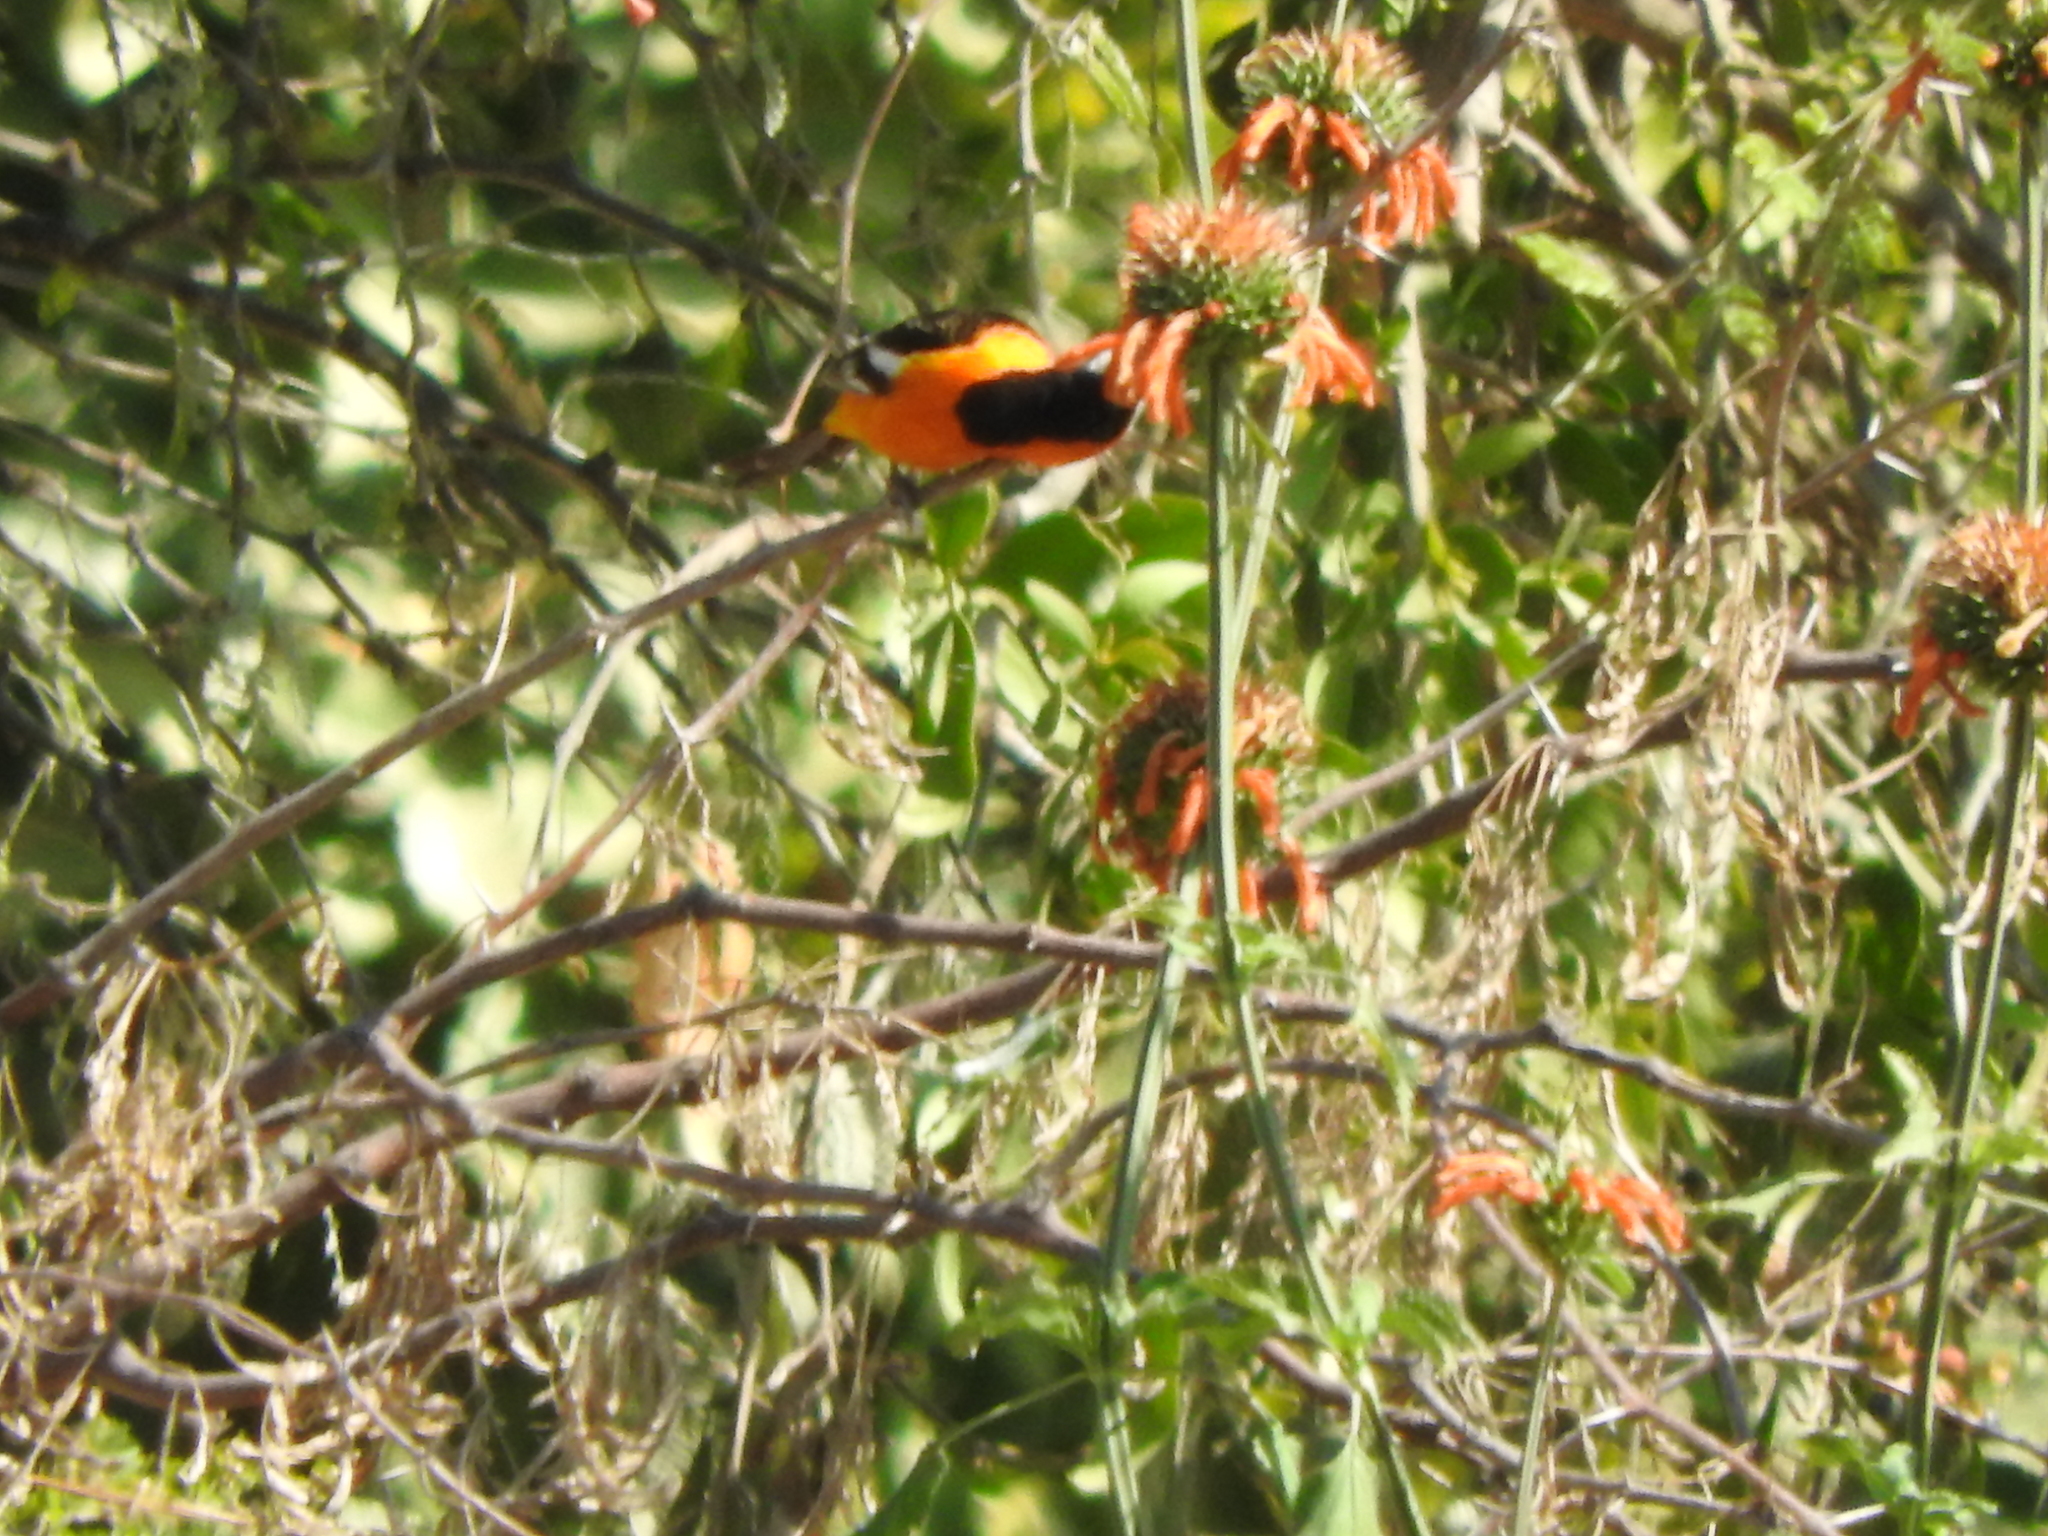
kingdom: Animalia
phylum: Chordata
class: Aves
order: Passeriformes
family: Icteridae
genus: Icterus
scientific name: Icterus cucullatus
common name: Hooded oriole
